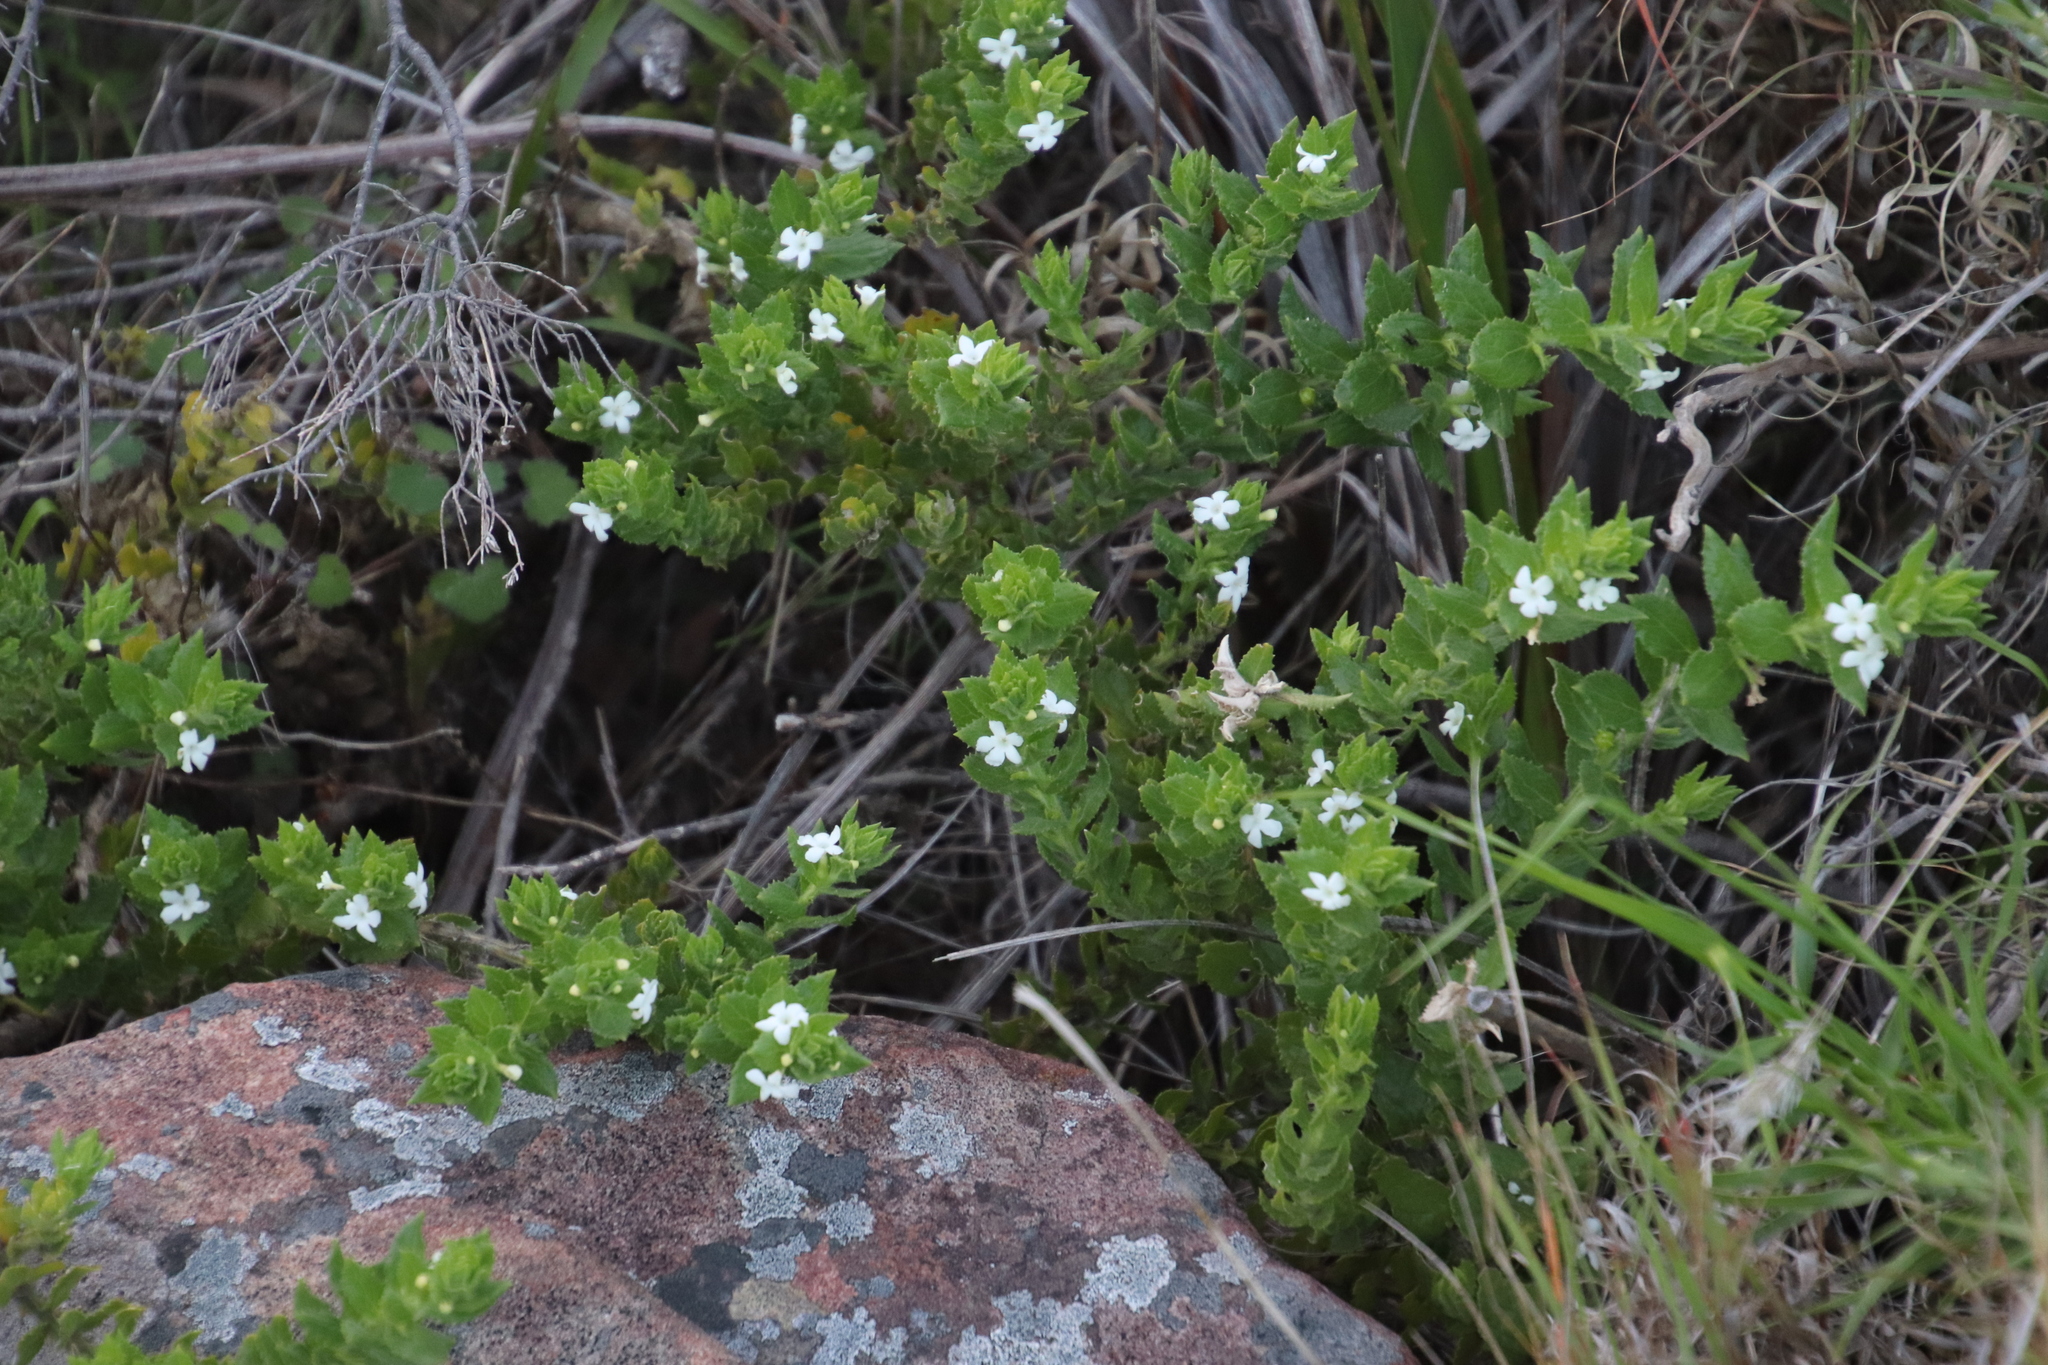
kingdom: Plantae
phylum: Tracheophyta
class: Magnoliopsida
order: Lamiales
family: Scrophulariaceae
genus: Oftia
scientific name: Oftia africana
